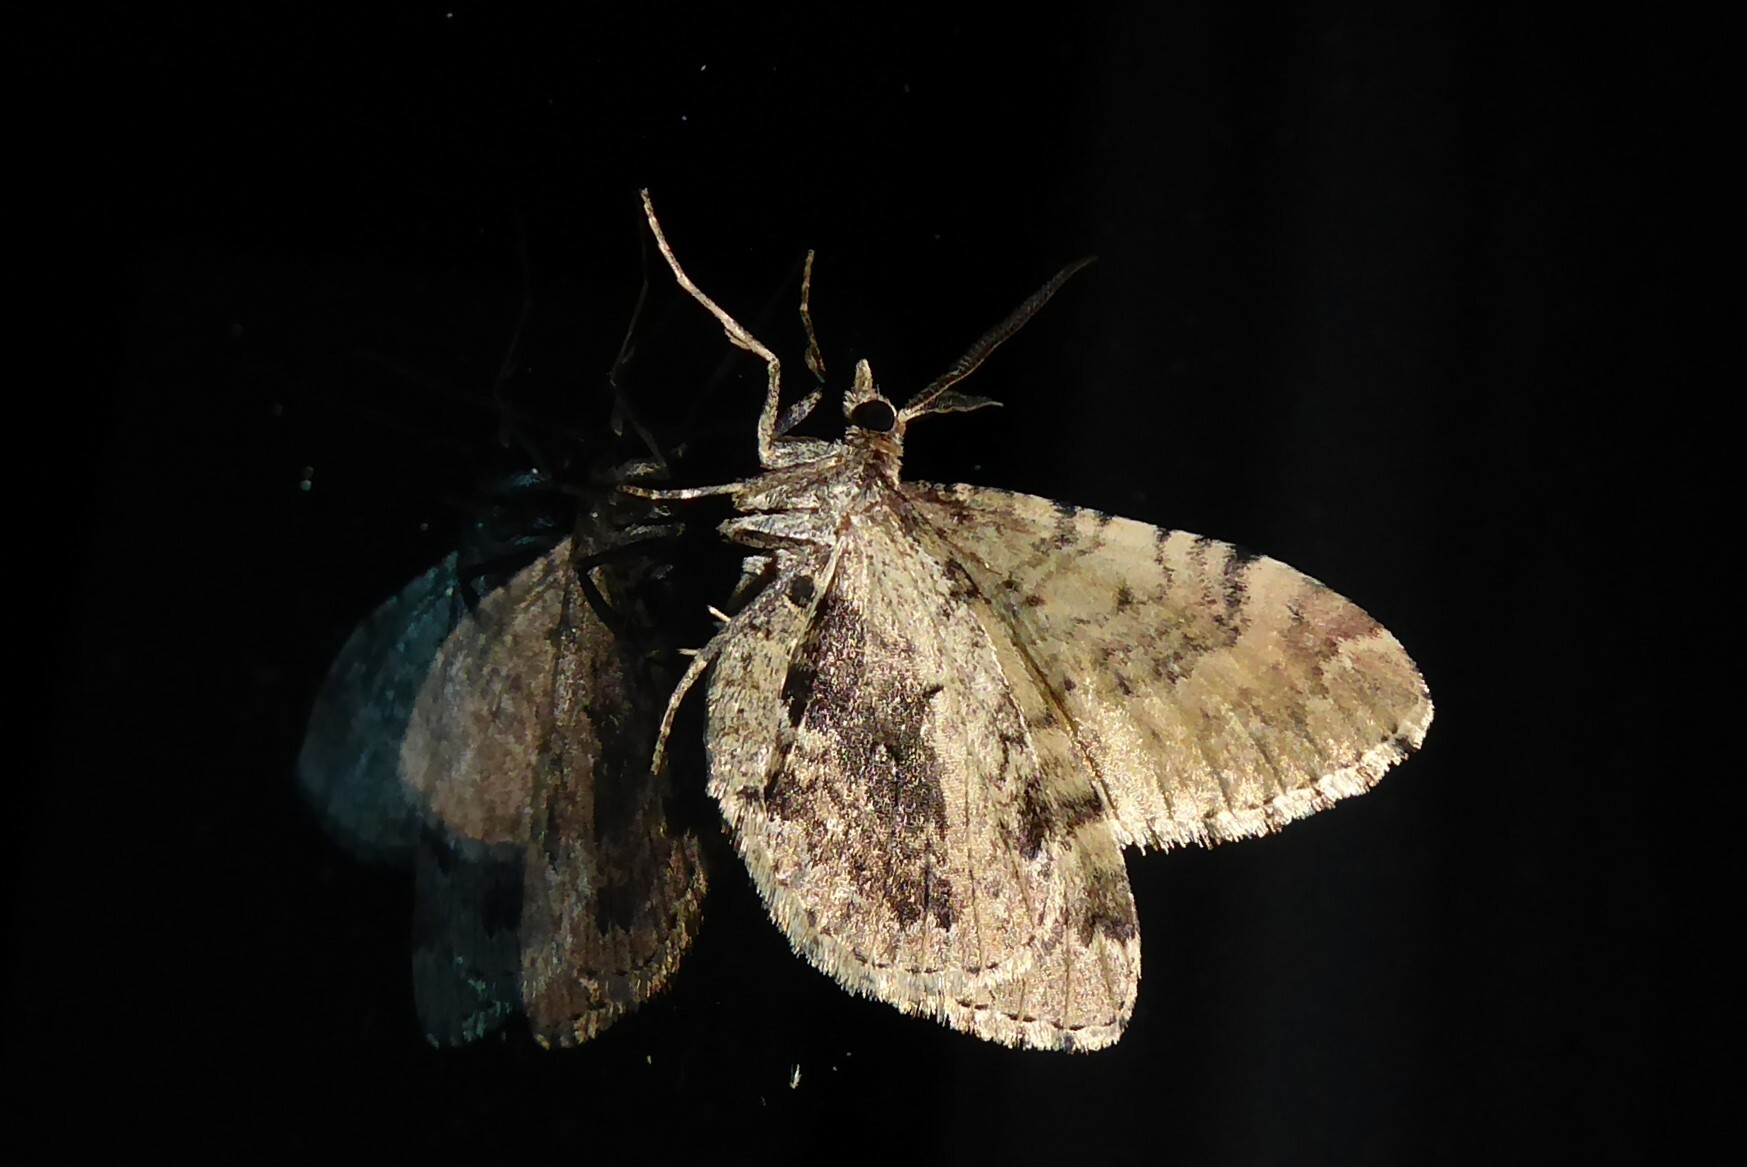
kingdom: Animalia
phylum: Arthropoda
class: Insecta
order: Lepidoptera
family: Geometridae
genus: Asaphodes
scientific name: Asaphodes aegrota
